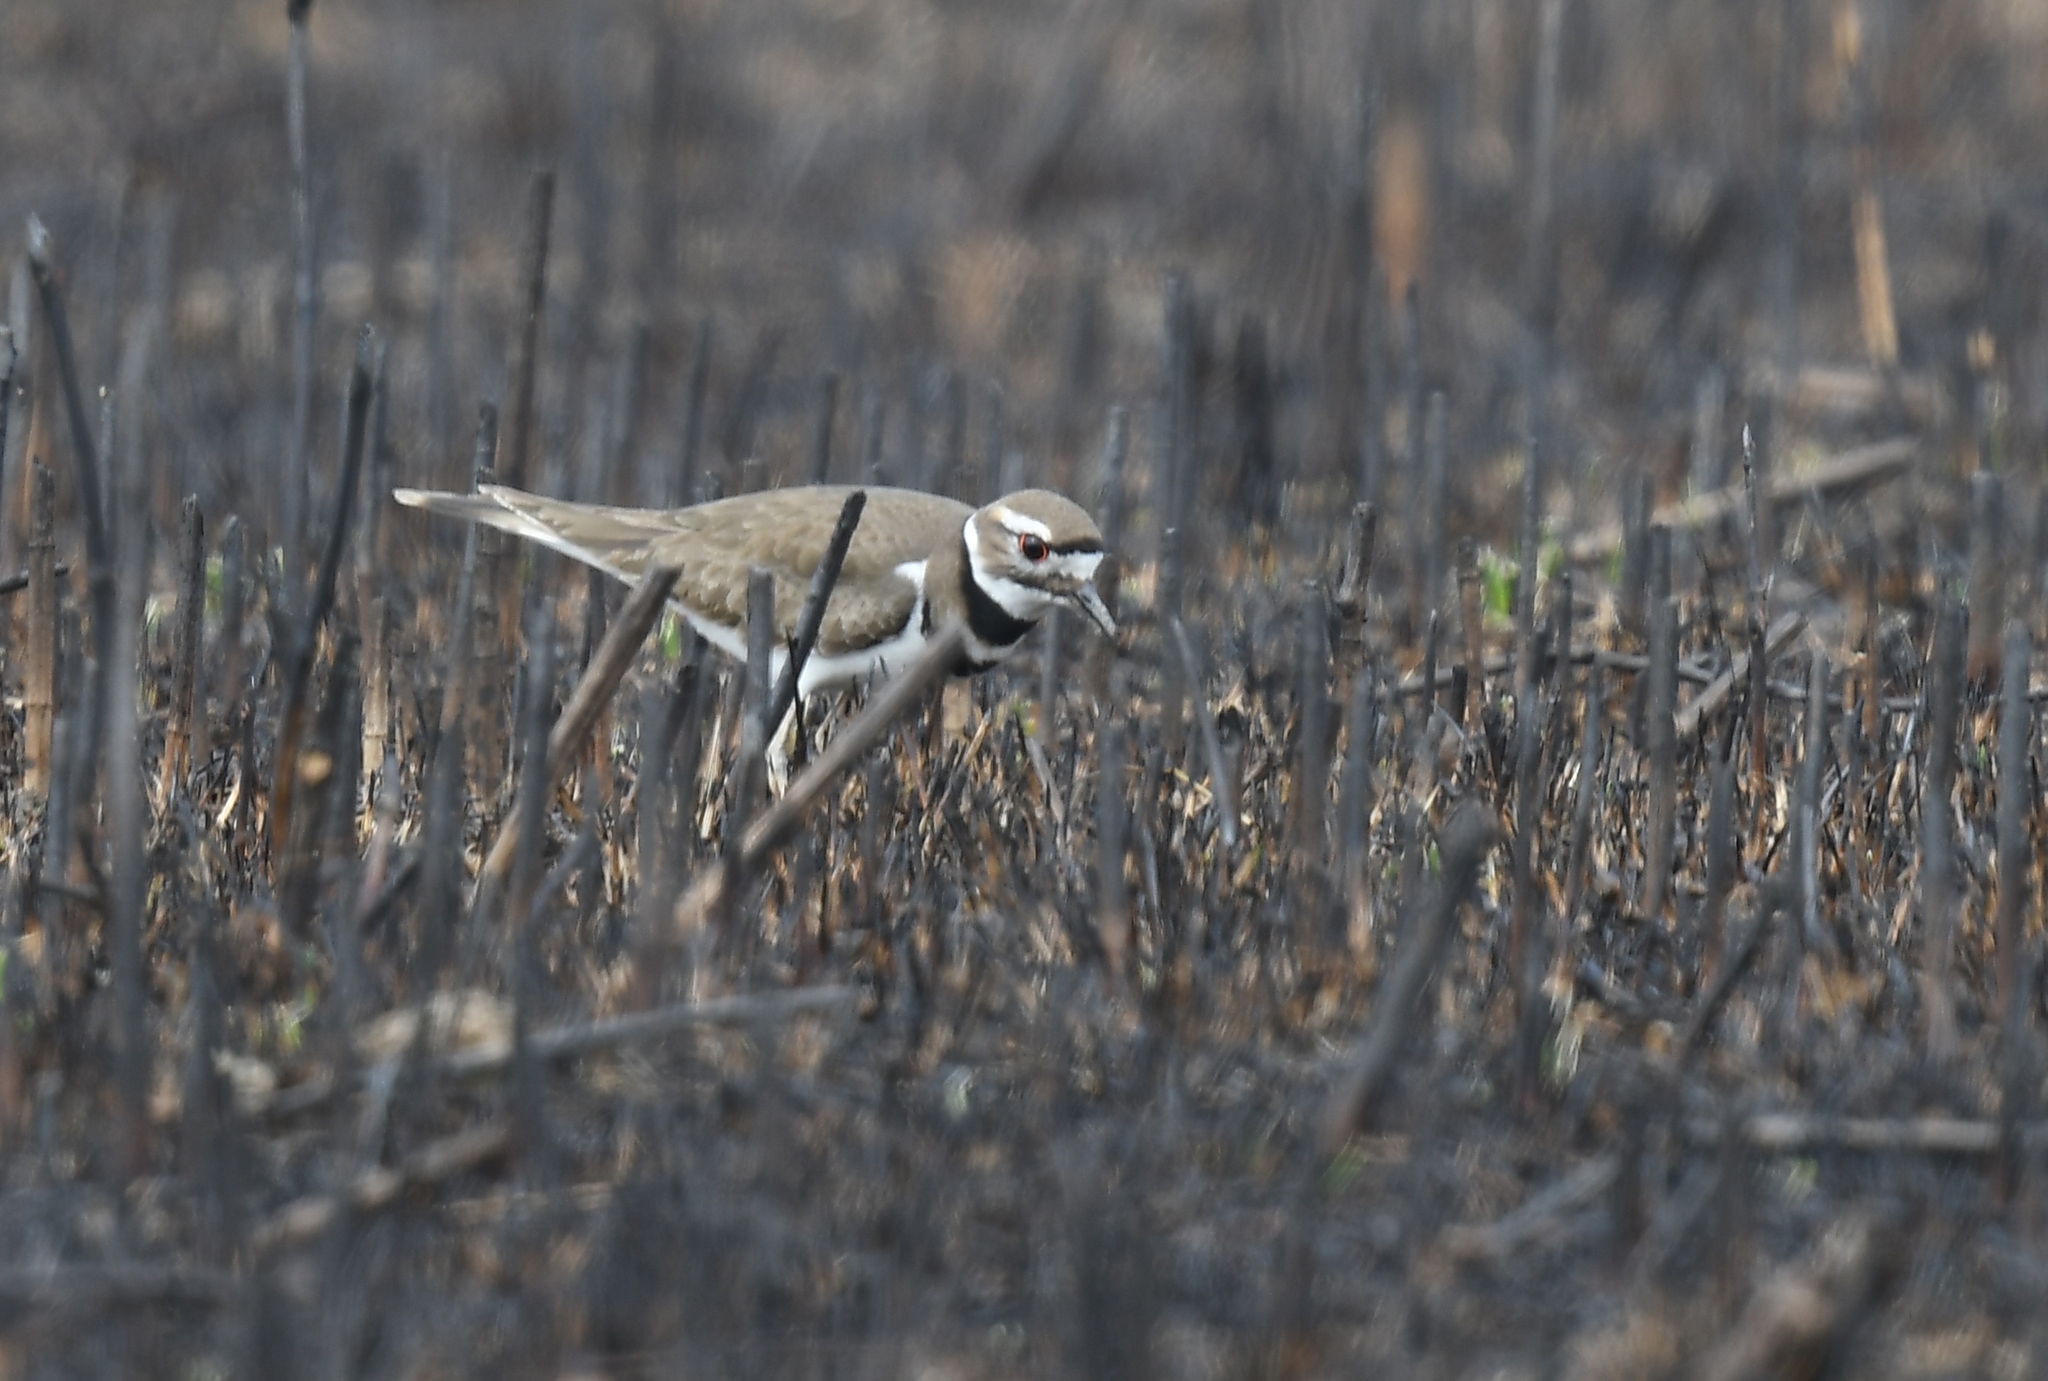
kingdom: Animalia
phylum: Chordata
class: Aves
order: Charadriiformes
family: Charadriidae
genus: Charadrius
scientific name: Charadrius vociferus
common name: Killdeer
